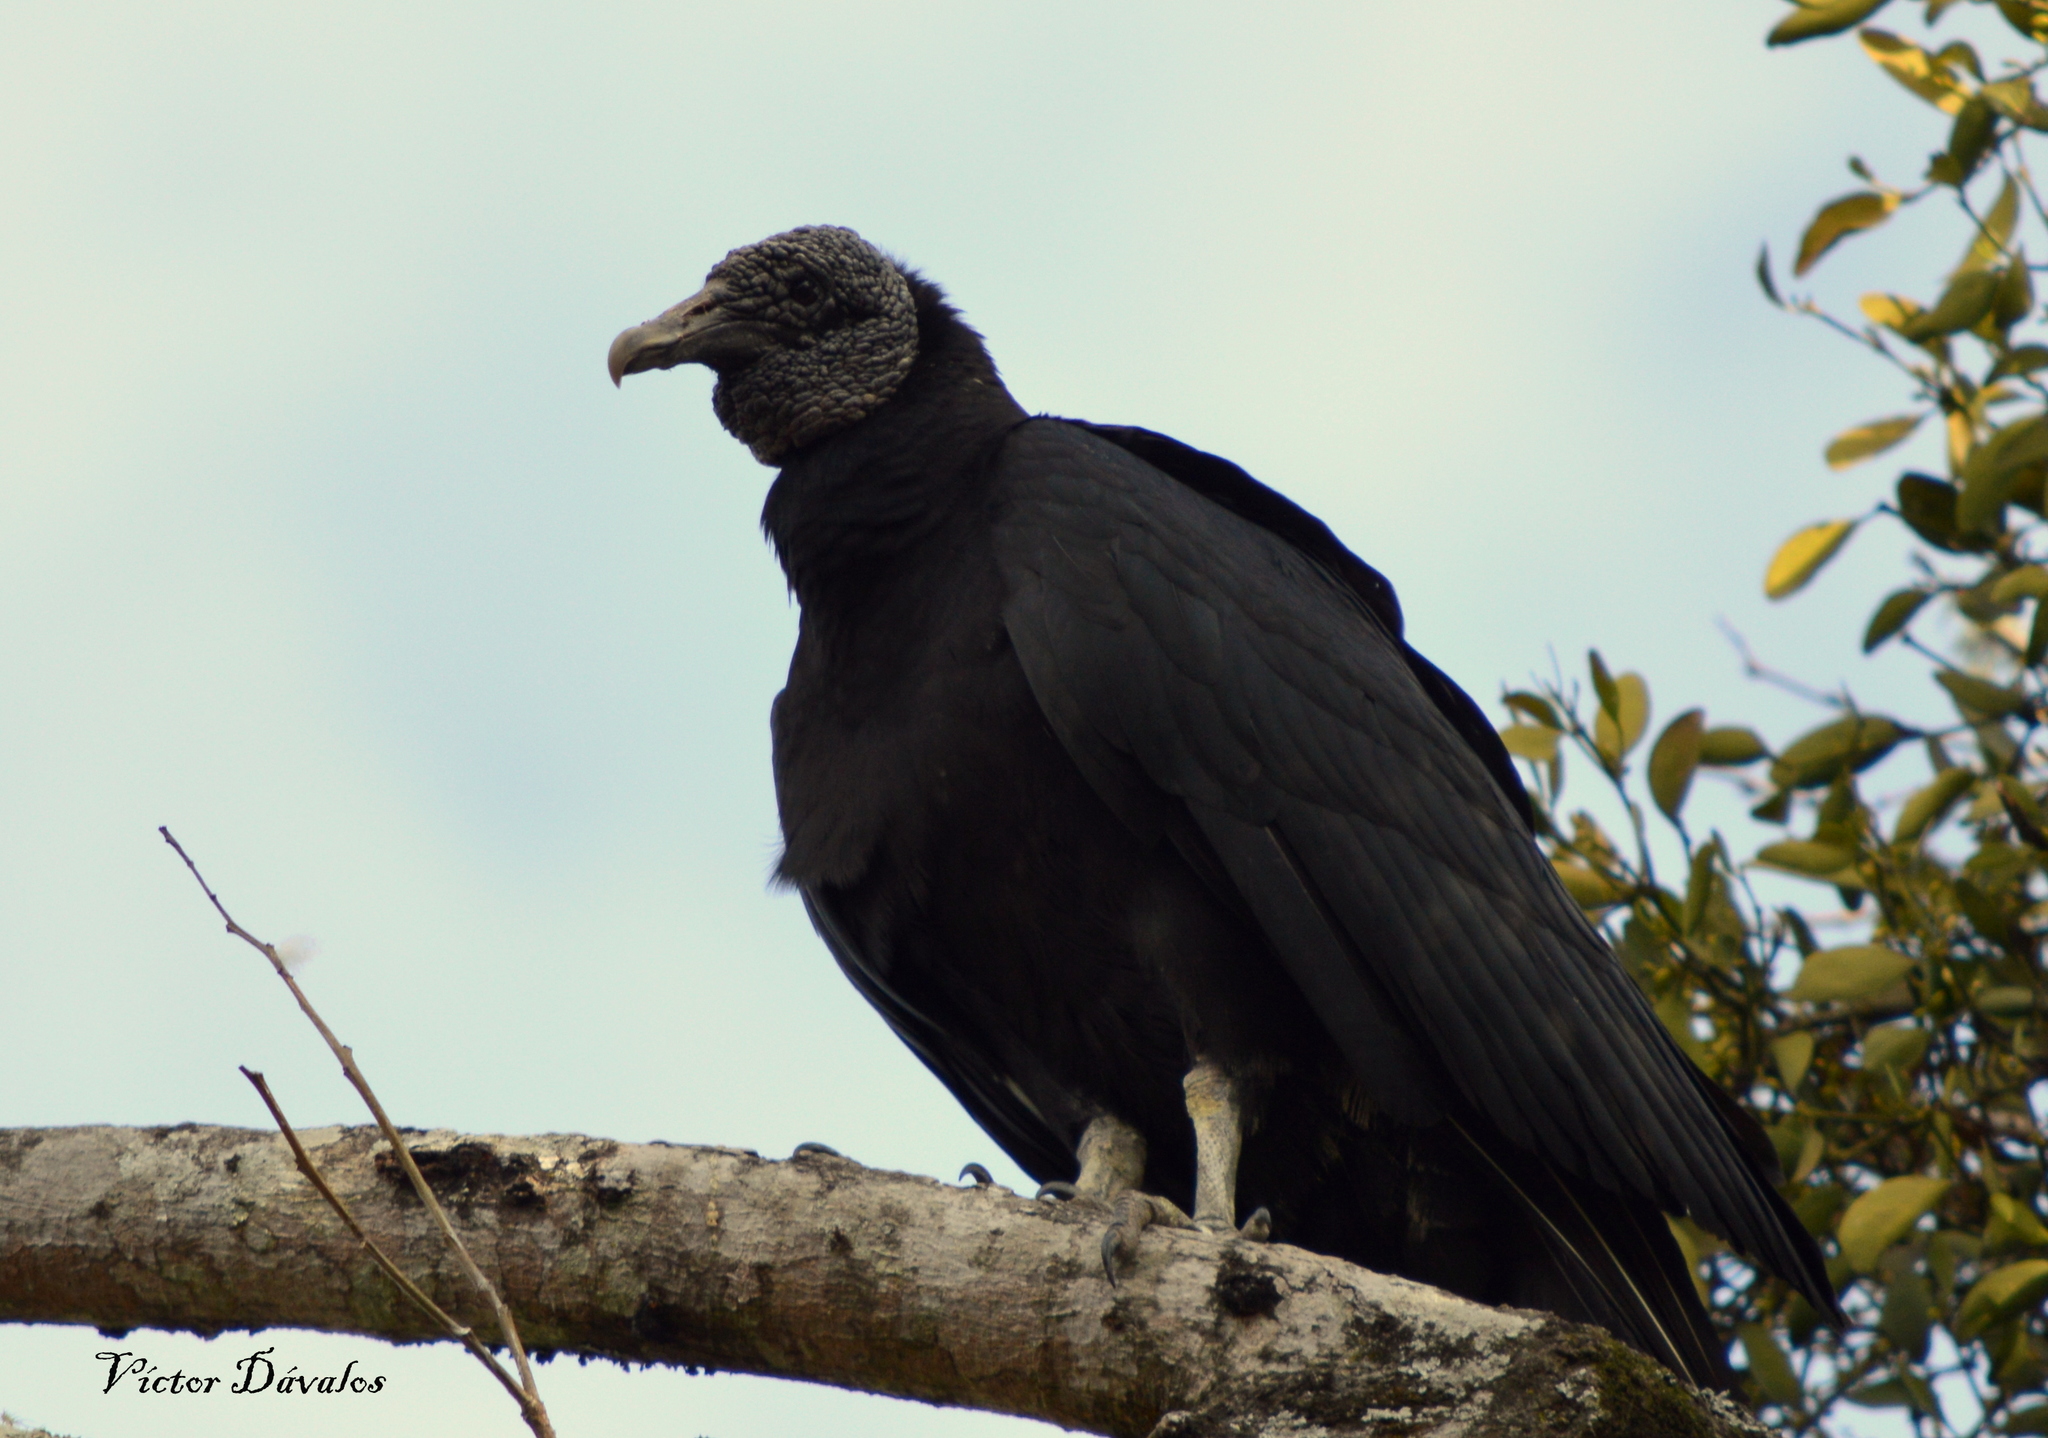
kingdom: Animalia
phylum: Chordata
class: Aves
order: Accipitriformes
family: Cathartidae
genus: Coragyps
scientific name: Coragyps atratus
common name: Black vulture
